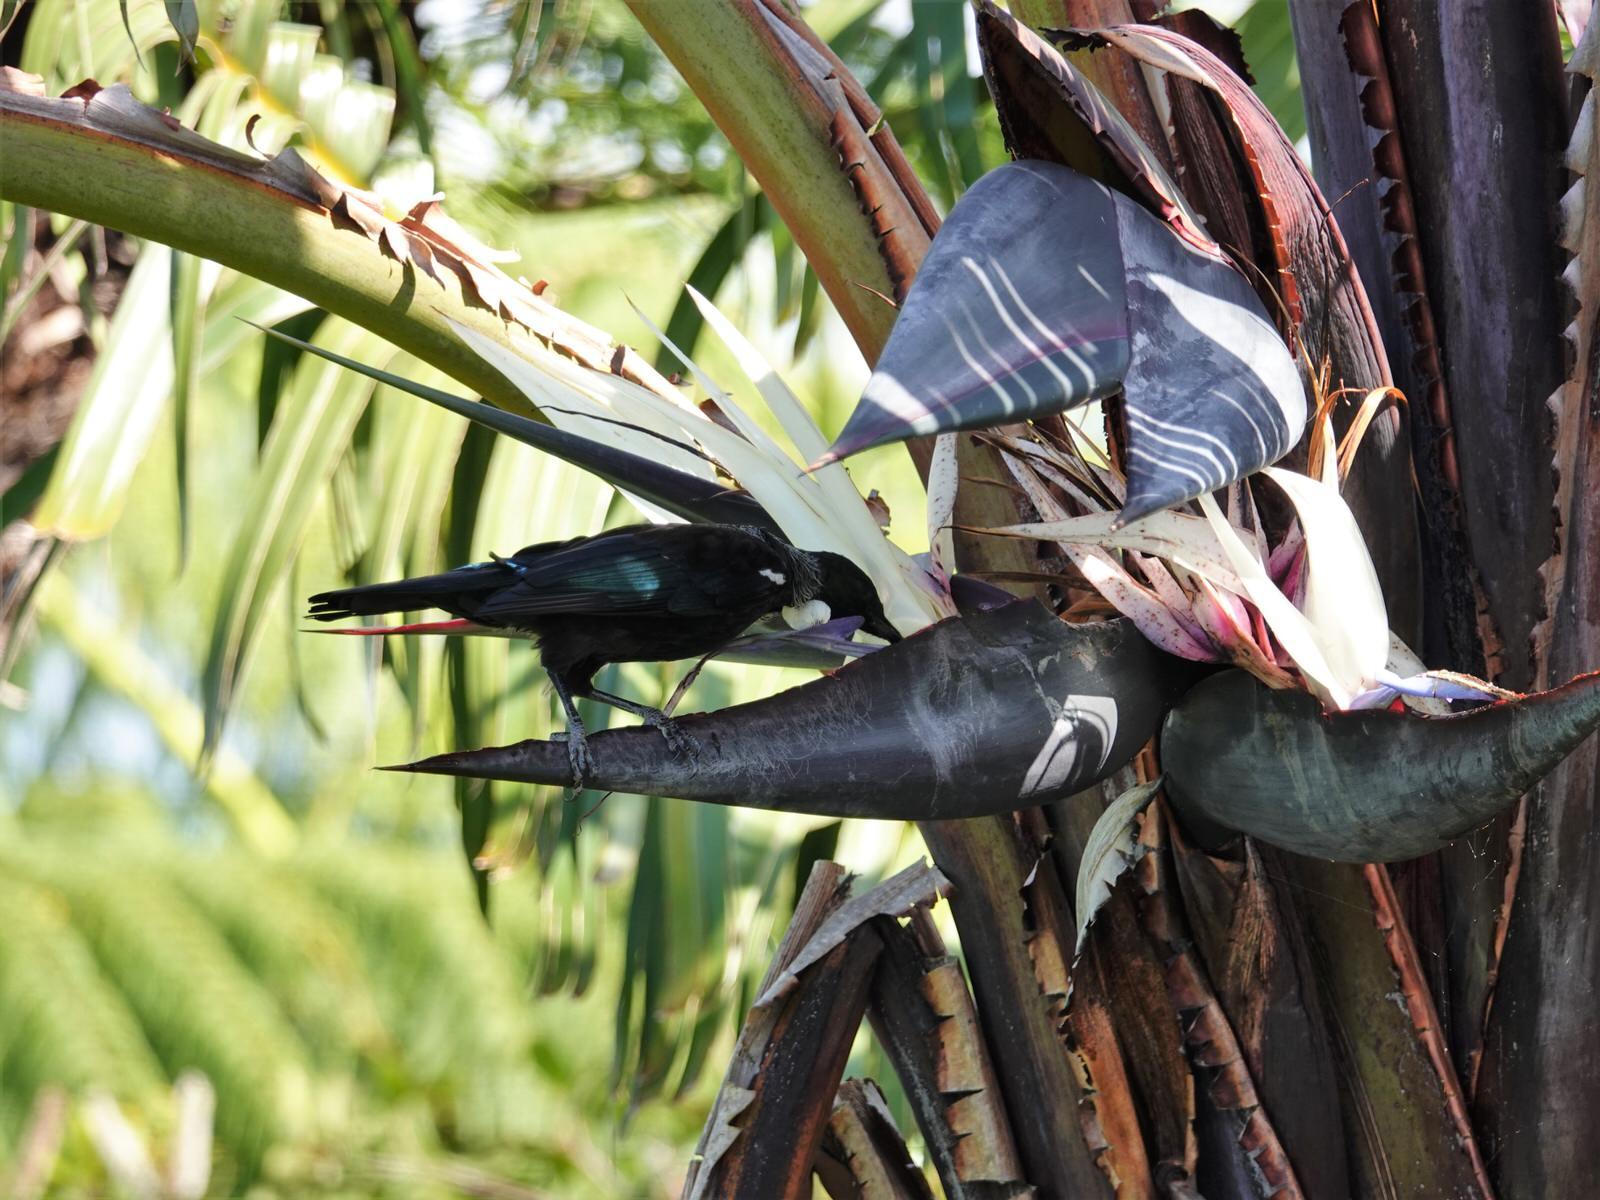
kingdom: Animalia
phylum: Chordata
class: Aves
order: Passeriformes
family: Meliphagidae
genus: Prosthemadera
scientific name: Prosthemadera novaeseelandiae
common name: Tui
